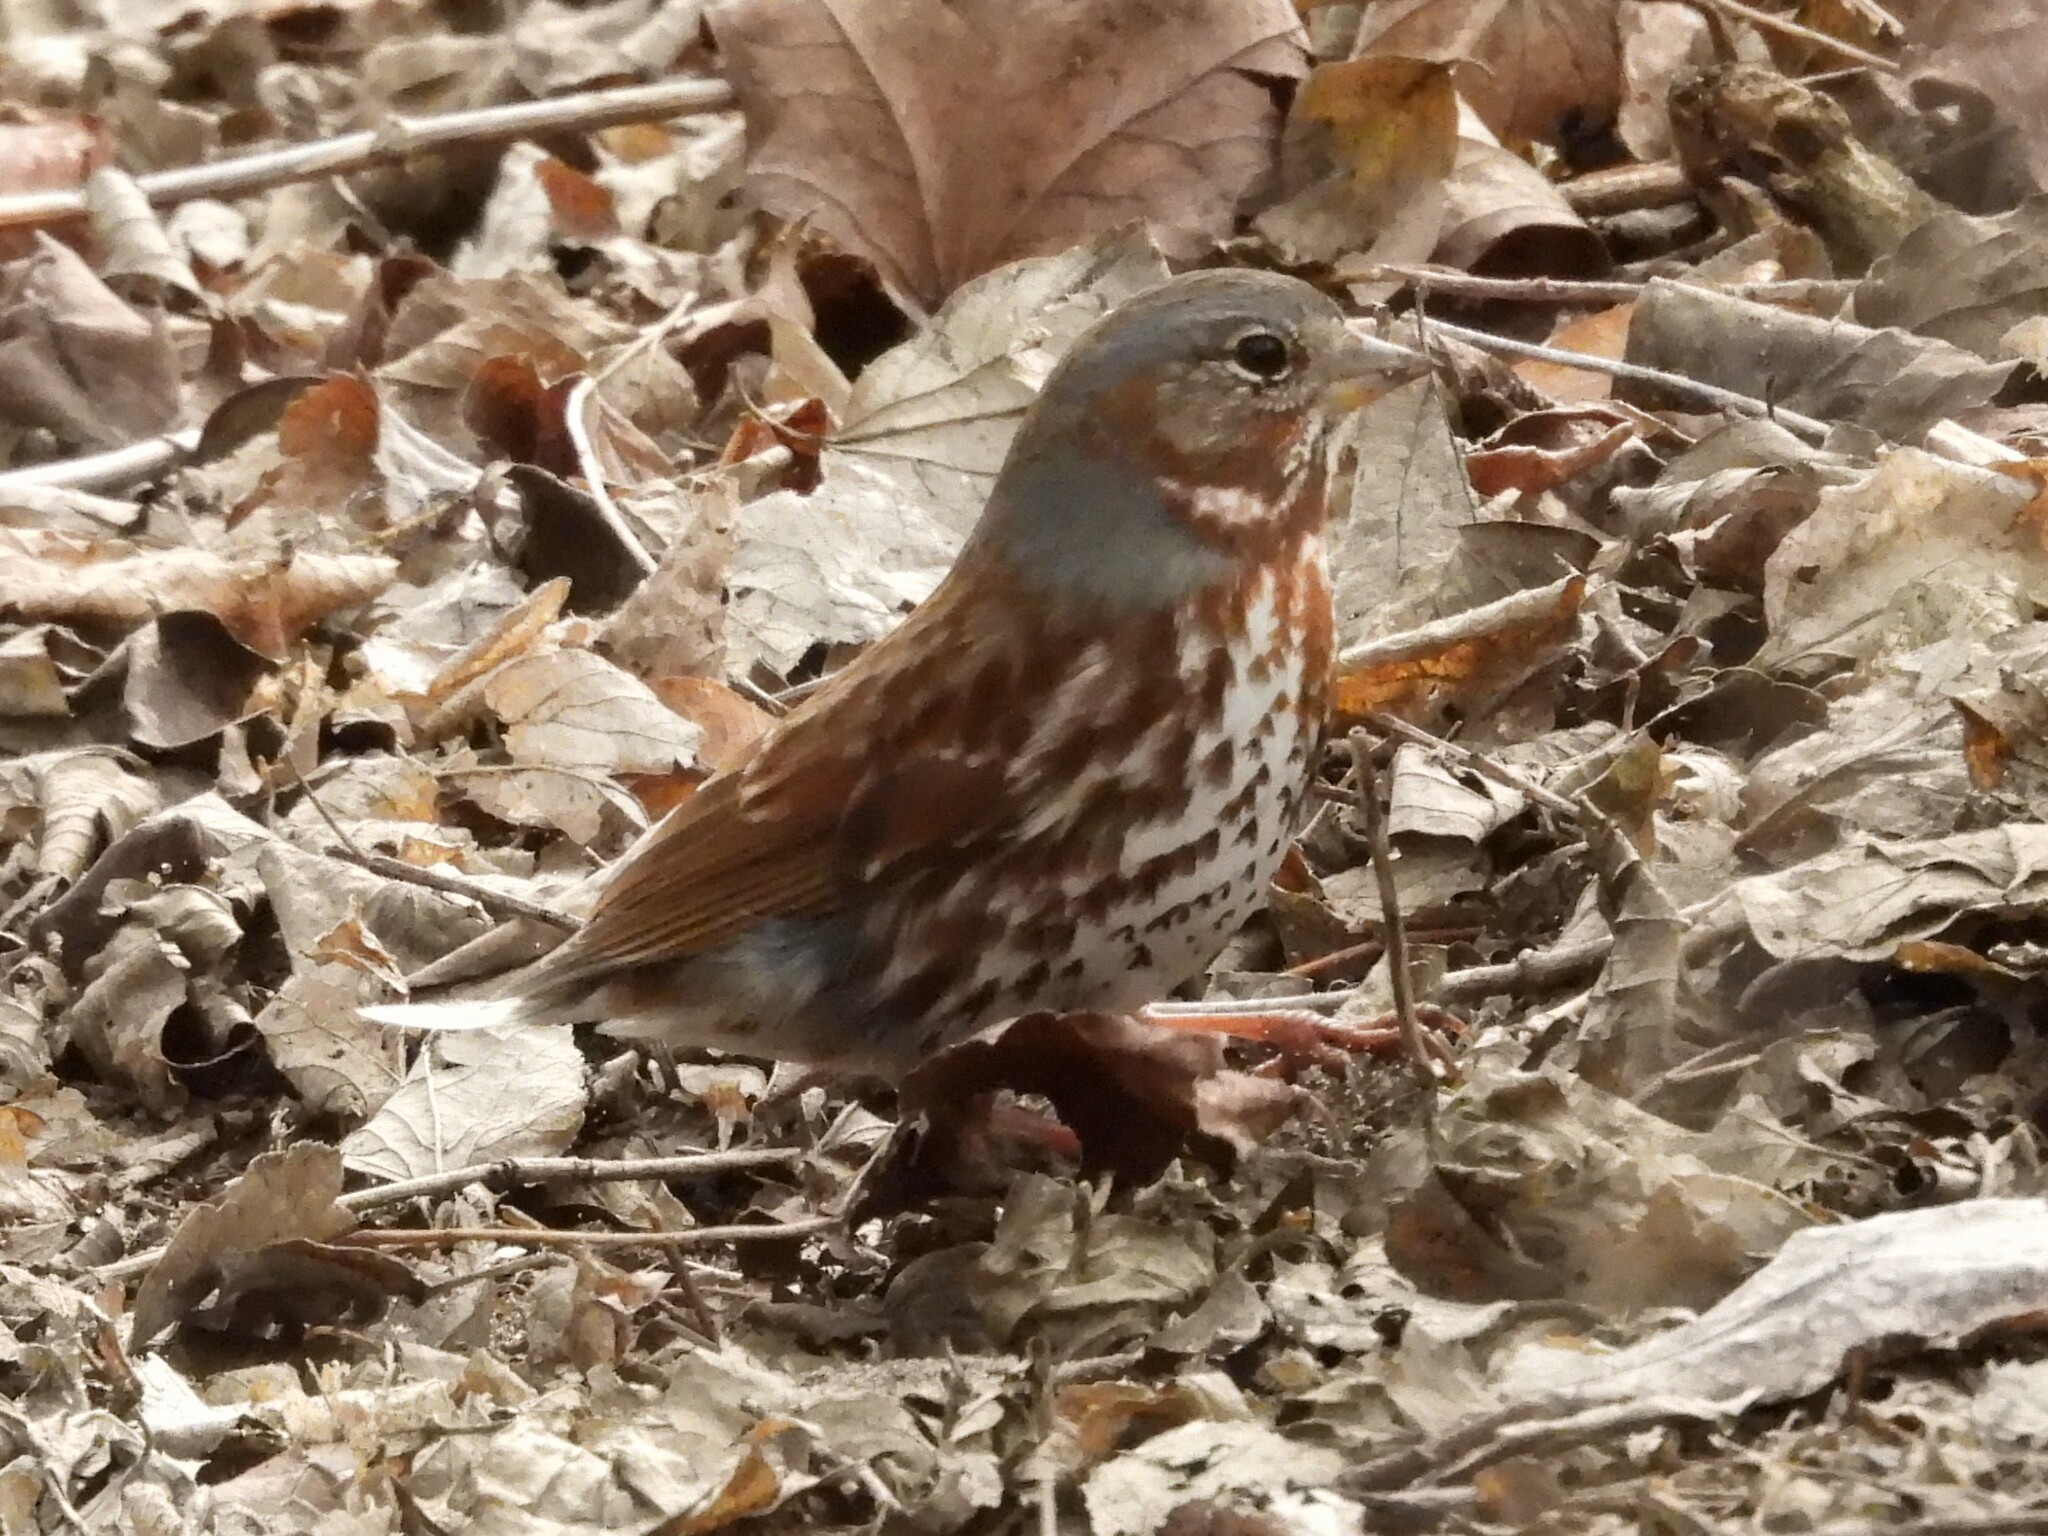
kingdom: Animalia
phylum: Chordata
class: Aves
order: Passeriformes
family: Passerellidae
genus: Passerella
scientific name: Passerella iliaca
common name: Fox sparrow
